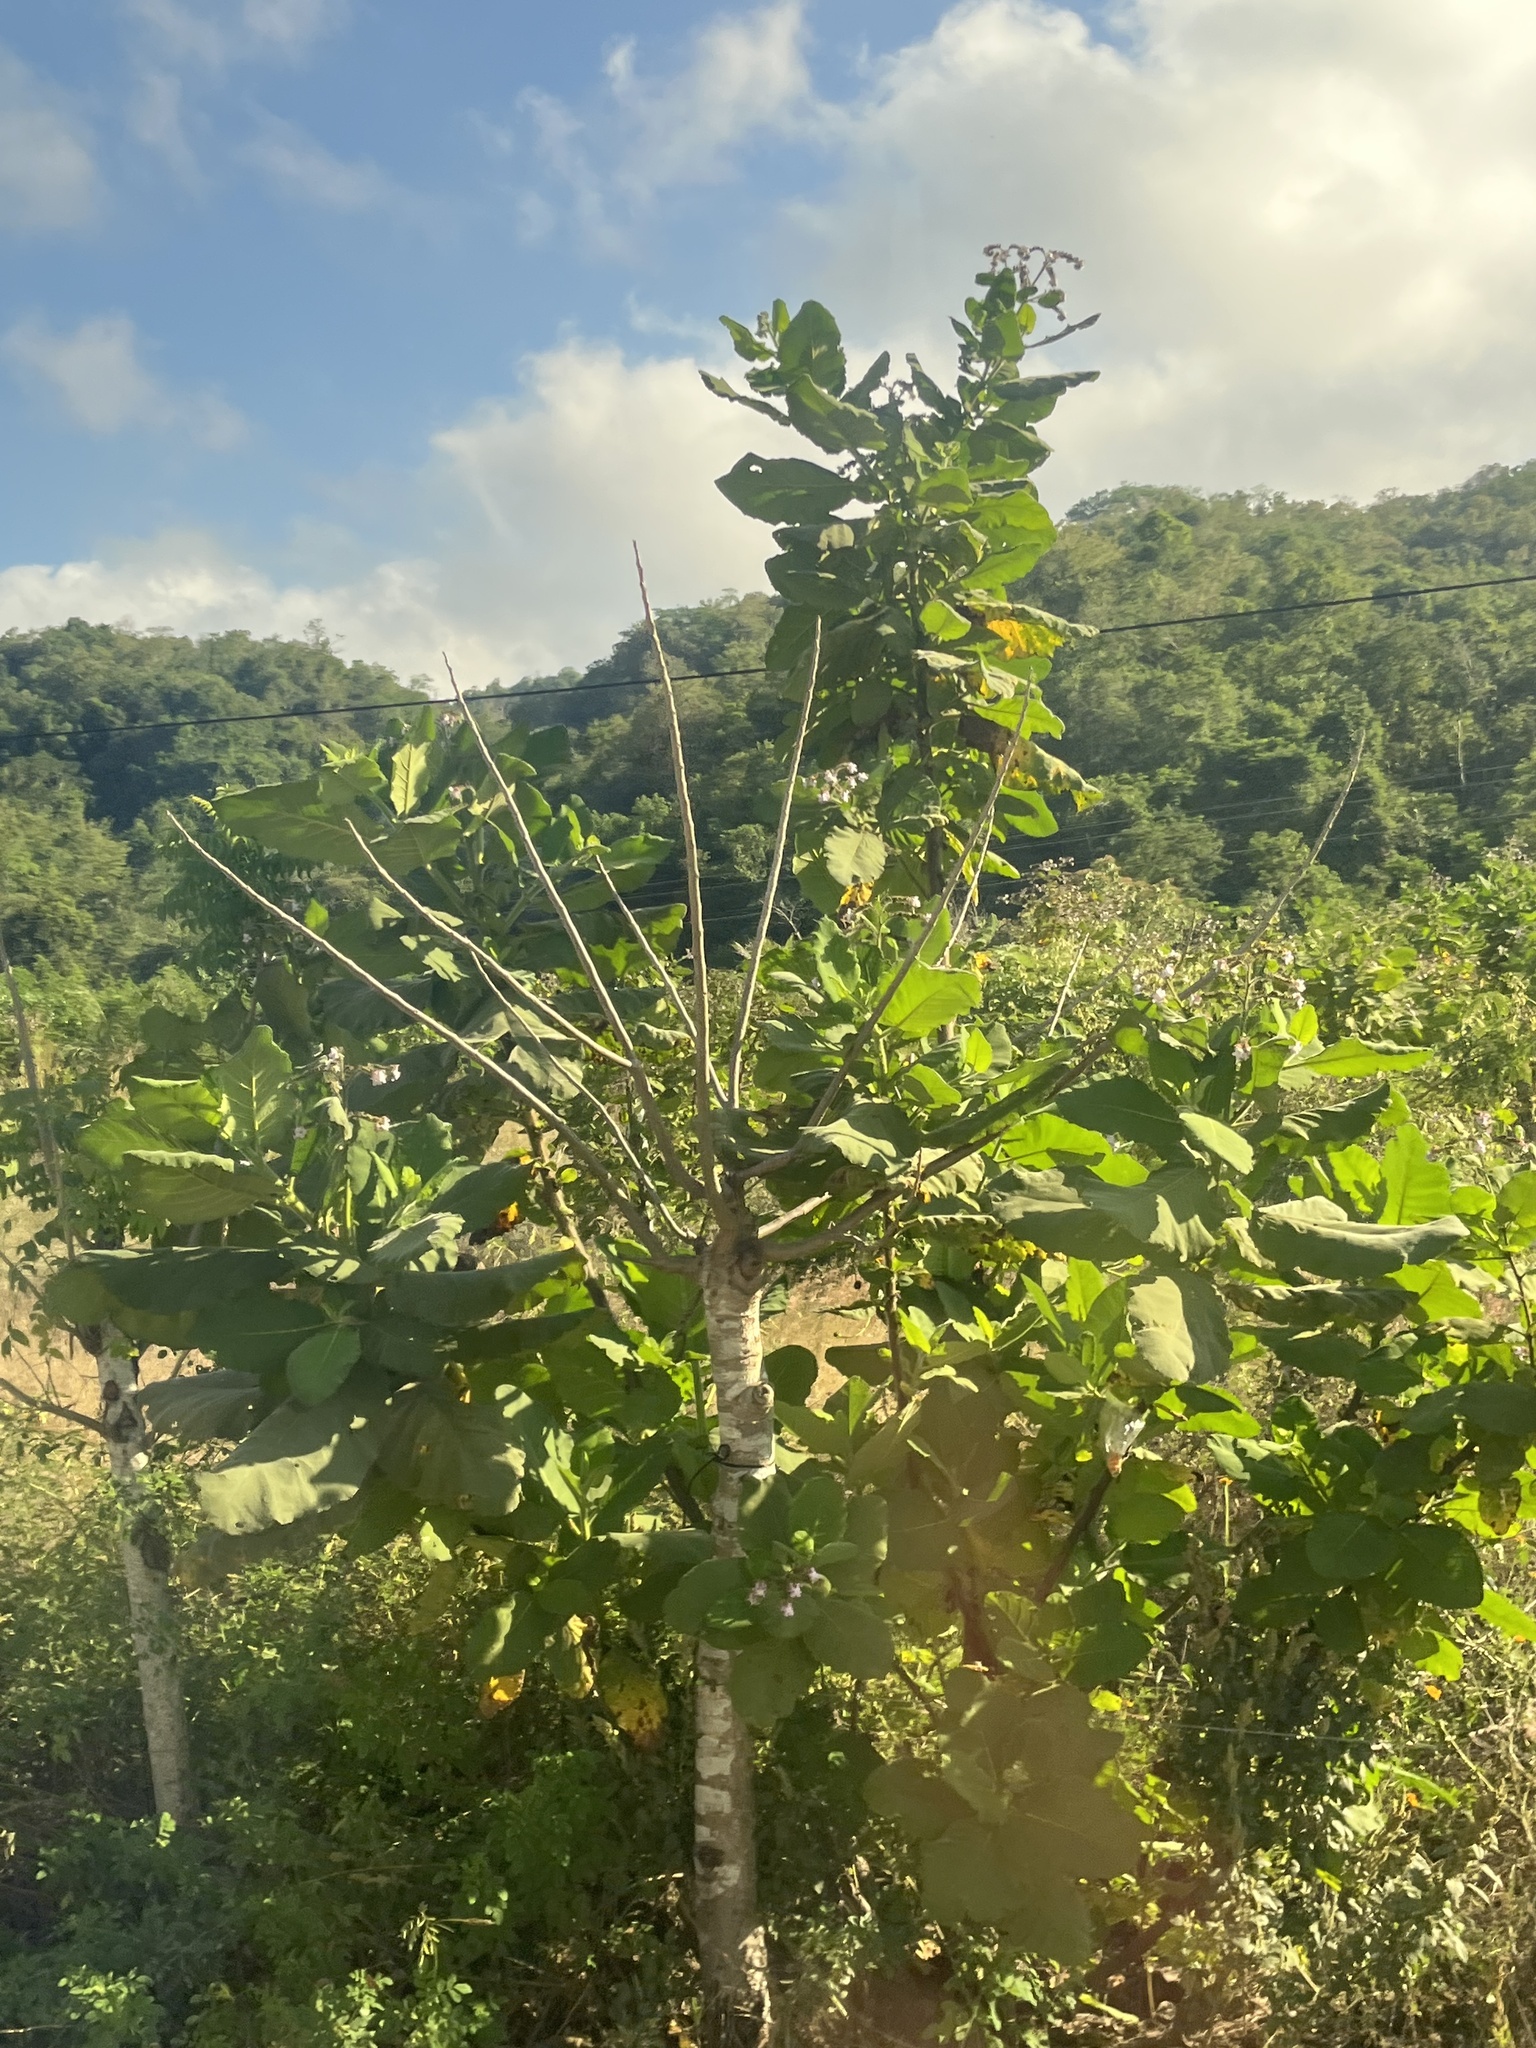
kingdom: Plantae
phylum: Tracheophyta
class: Magnoliopsida
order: Boraginales
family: Namaceae
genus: Wigandia
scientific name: Wigandia urens
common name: Caracus wigandia
